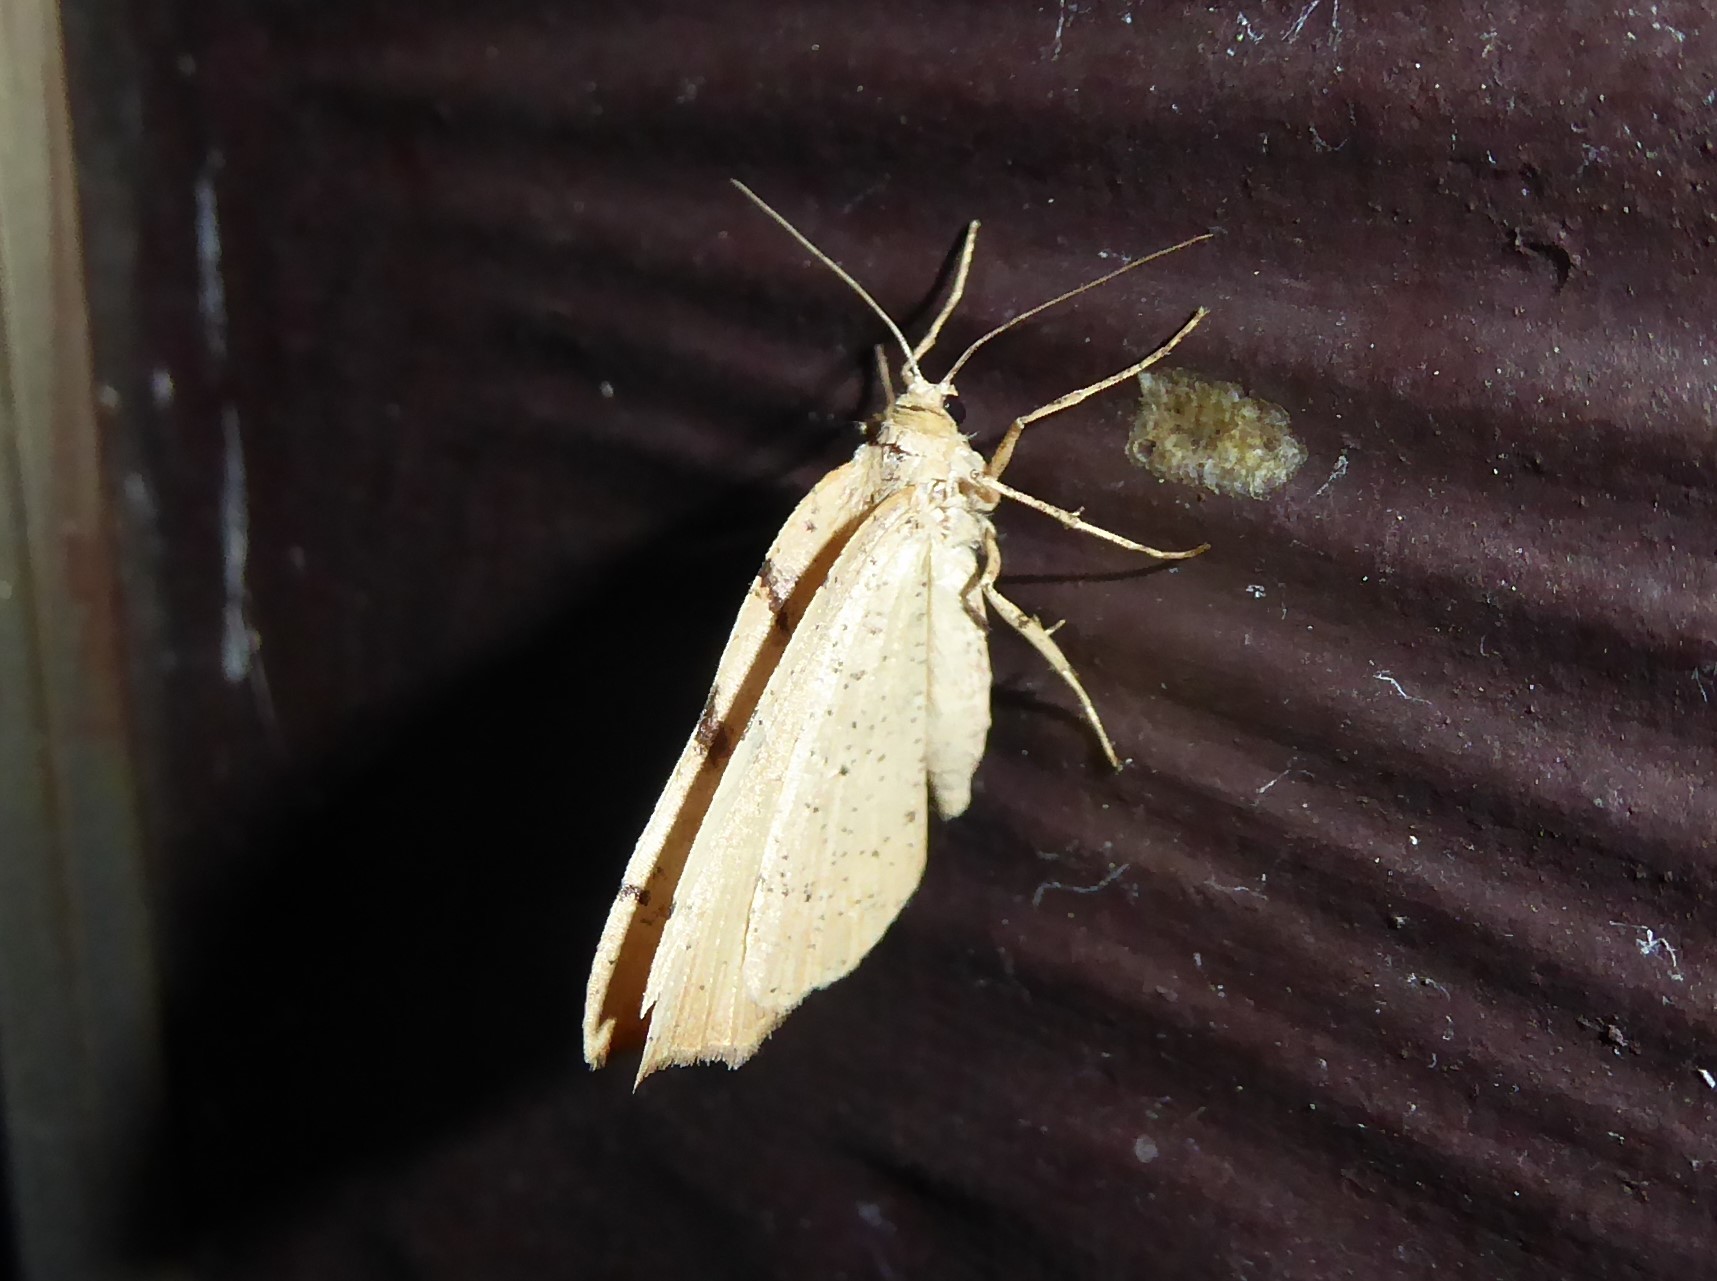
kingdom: Animalia
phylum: Arthropoda
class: Insecta
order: Lepidoptera
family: Geometridae
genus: Sestra
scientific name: Sestra humeraria
